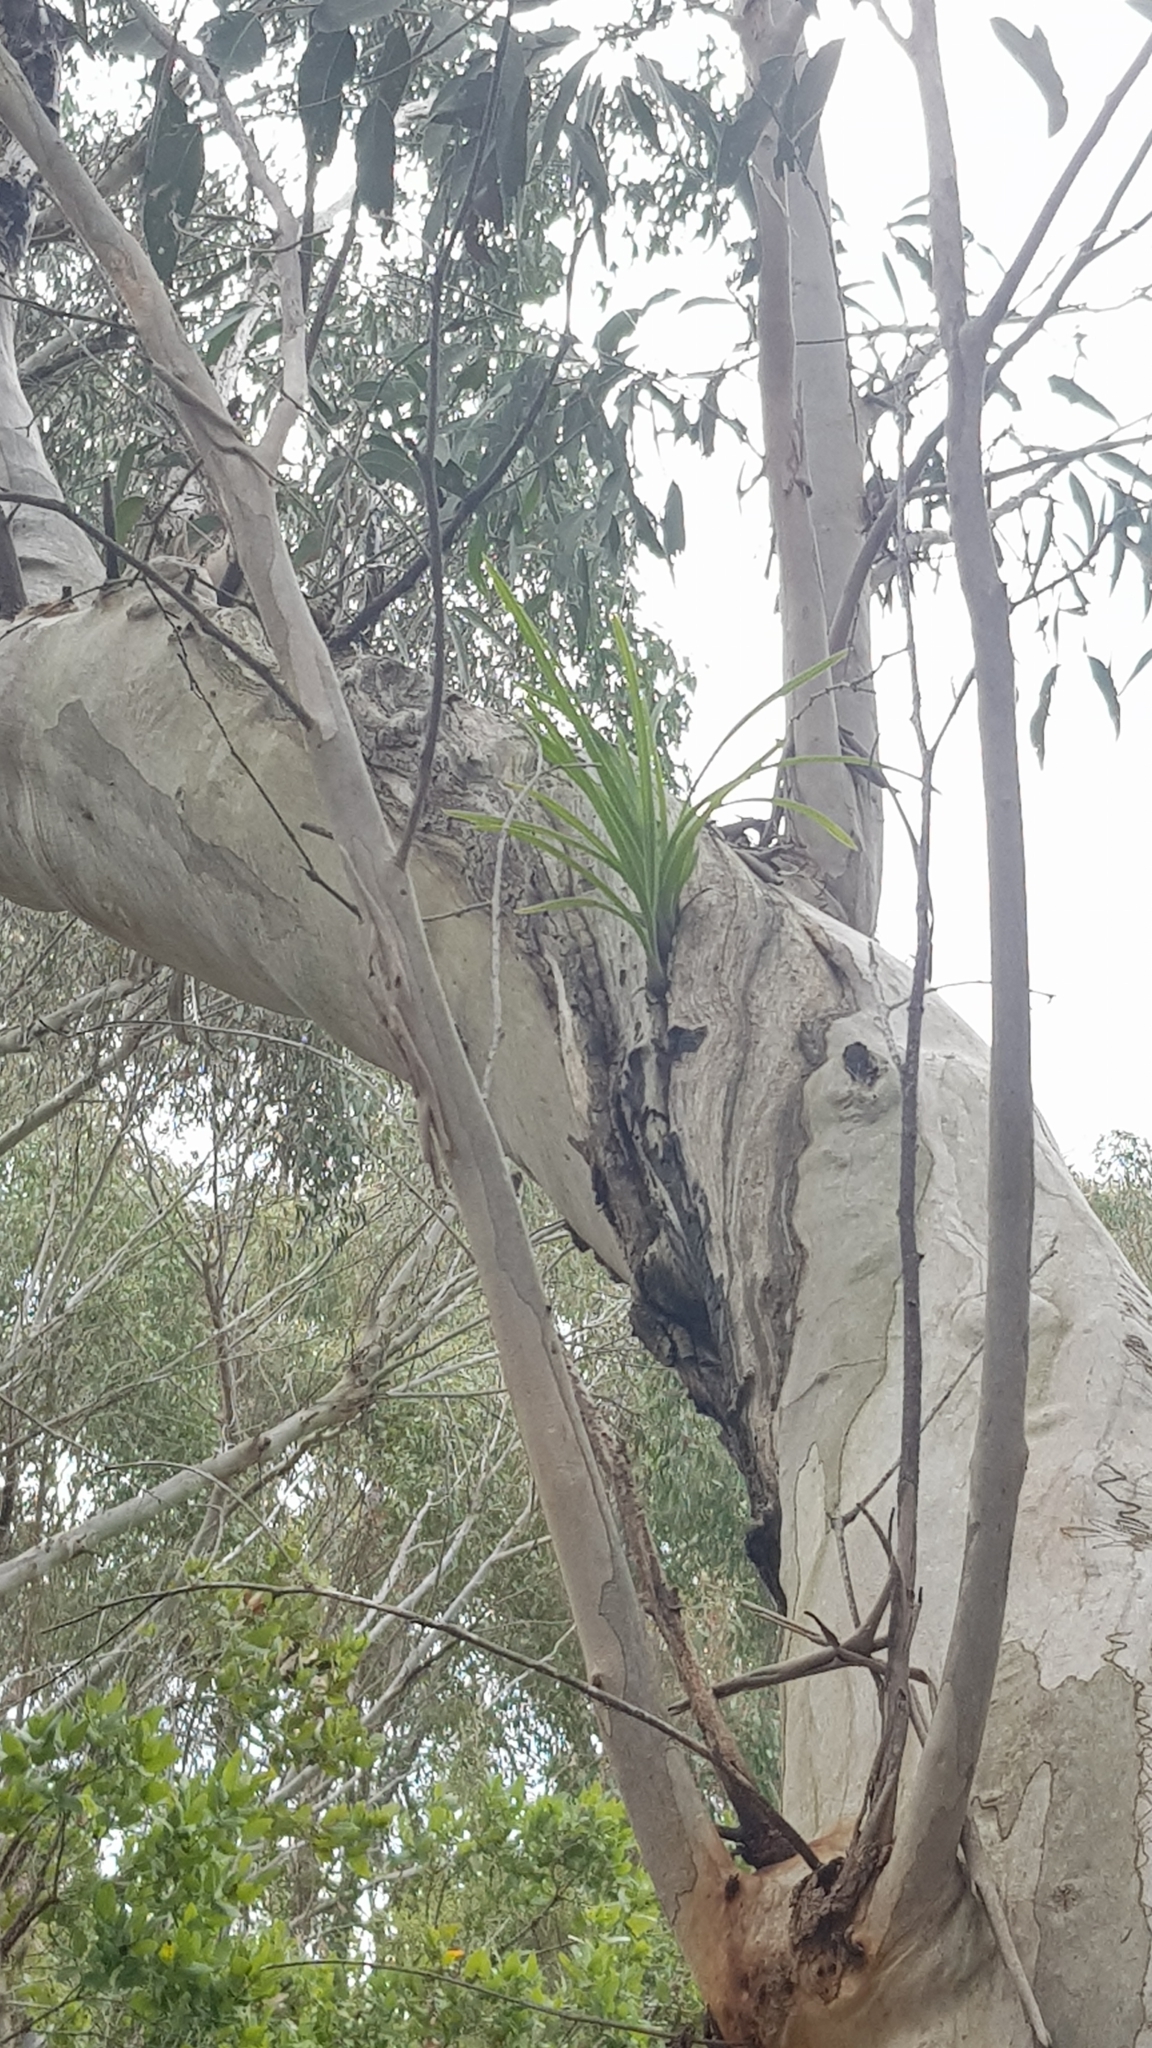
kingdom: Plantae
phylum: Tracheophyta
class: Liliopsida
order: Asparagales
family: Orchidaceae
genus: Cymbidium
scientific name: Cymbidium suave
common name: Snake orchid
